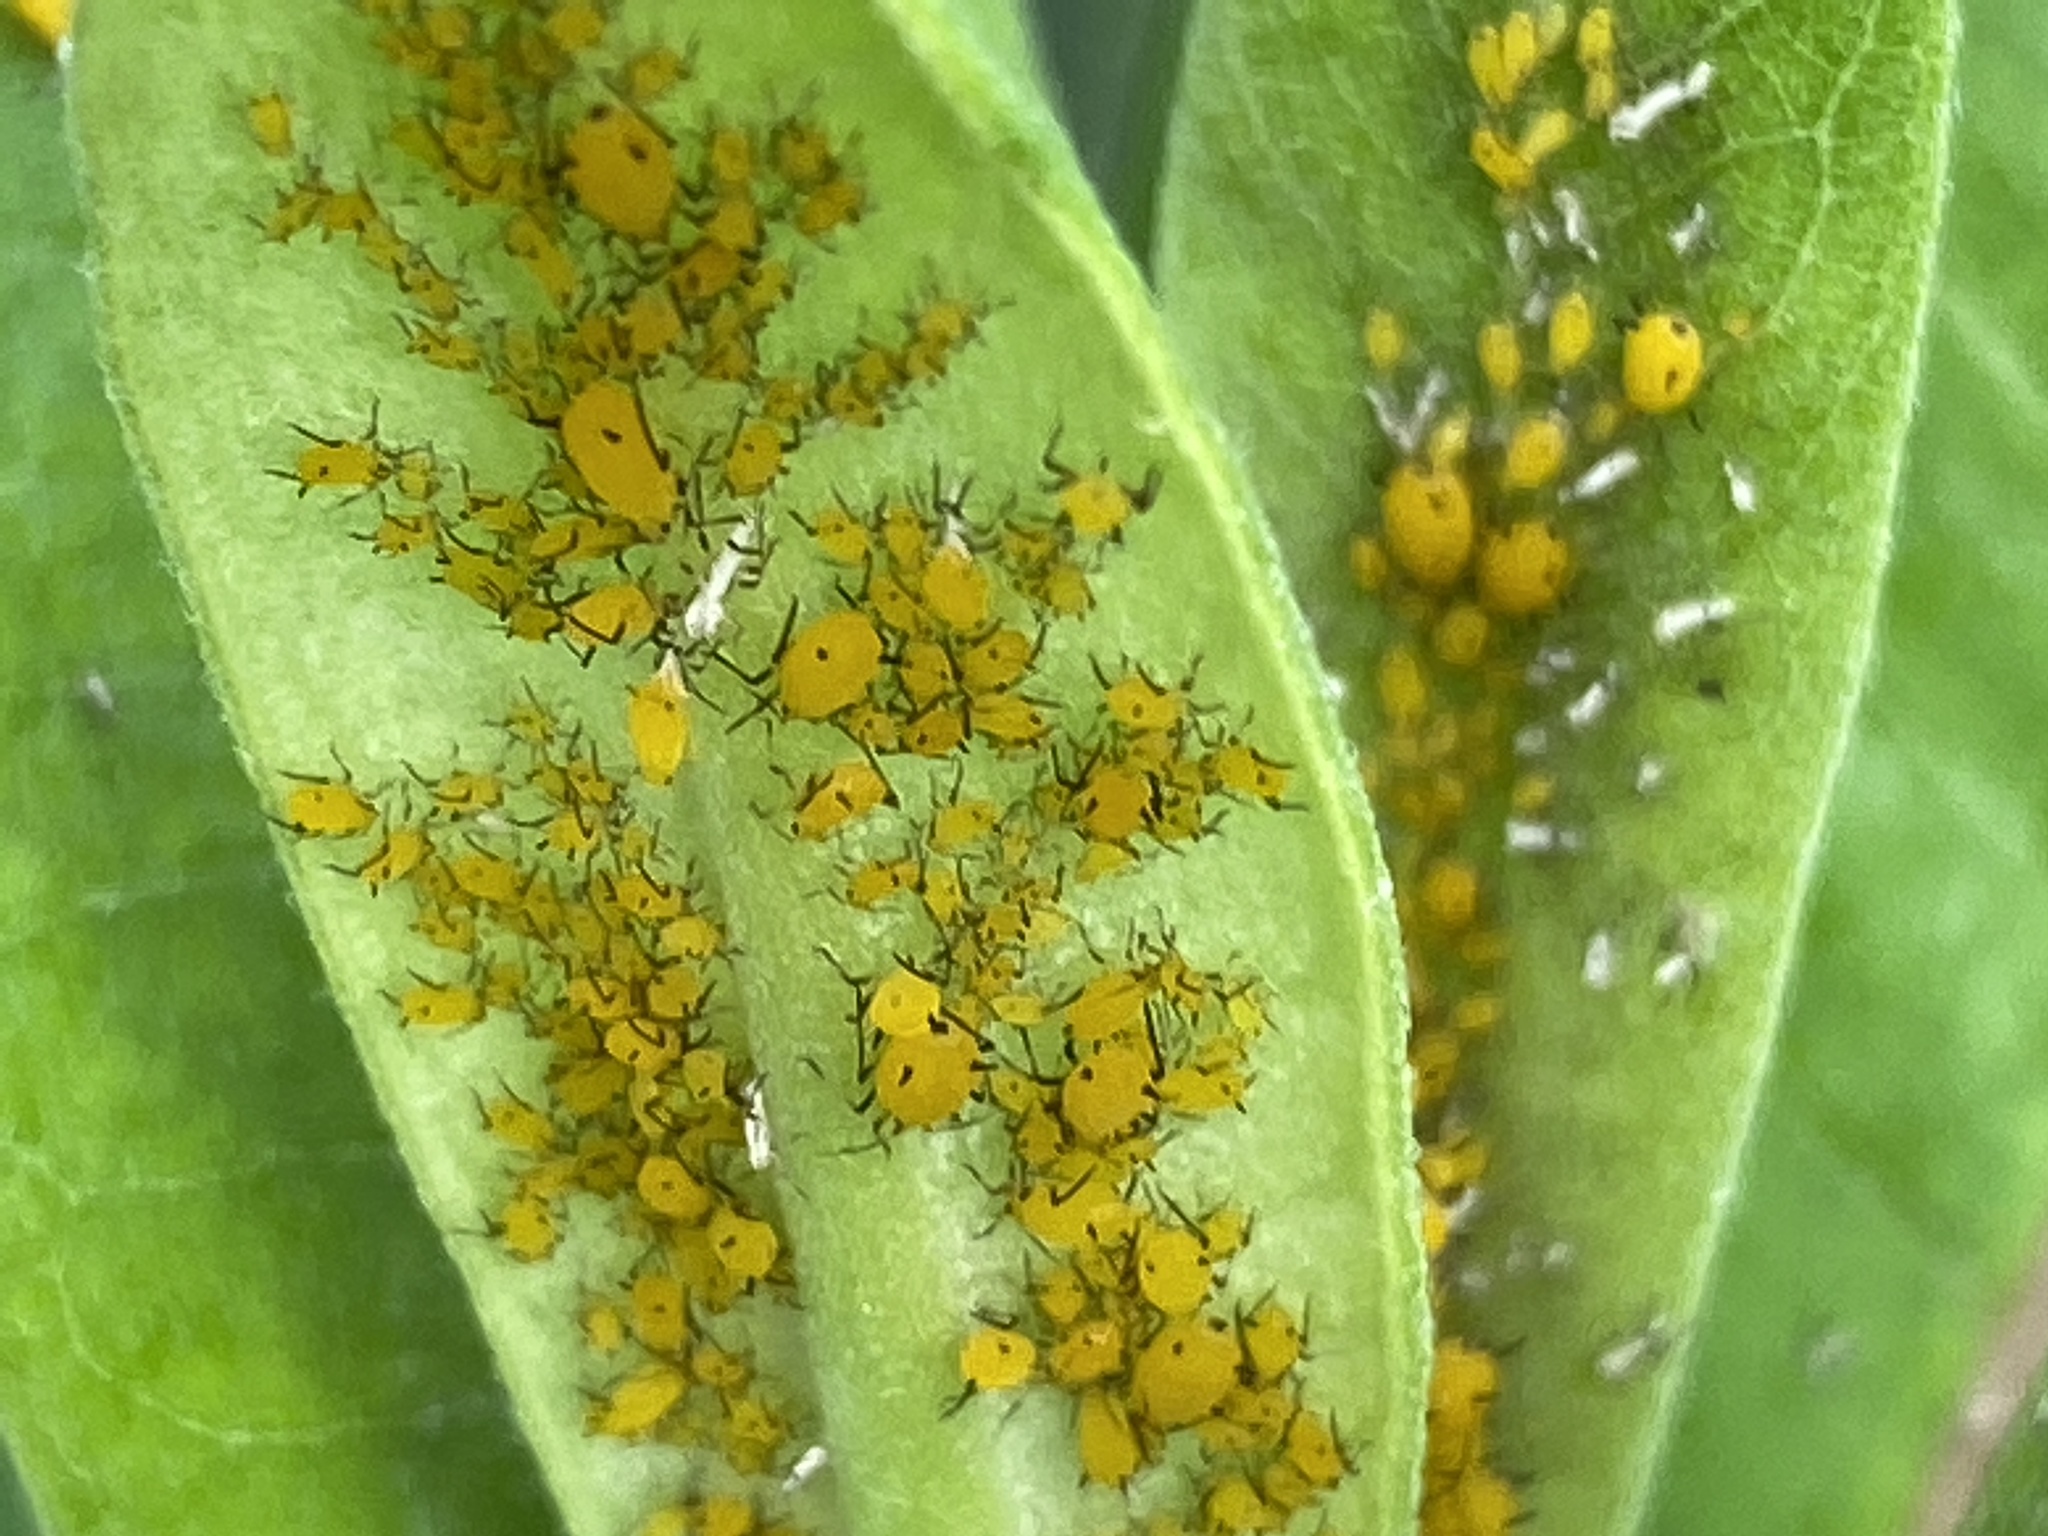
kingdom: Animalia
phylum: Arthropoda
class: Insecta
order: Hemiptera
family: Aphididae
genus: Aphis
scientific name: Aphis nerii
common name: Oleander aphid
